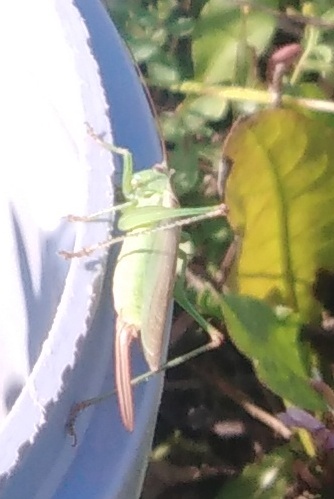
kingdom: Animalia
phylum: Arthropoda
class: Insecta
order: Orthoptera
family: Tettigoniidae
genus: Conocephalus
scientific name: Conocephalus fuscus
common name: Long-winged conehead
